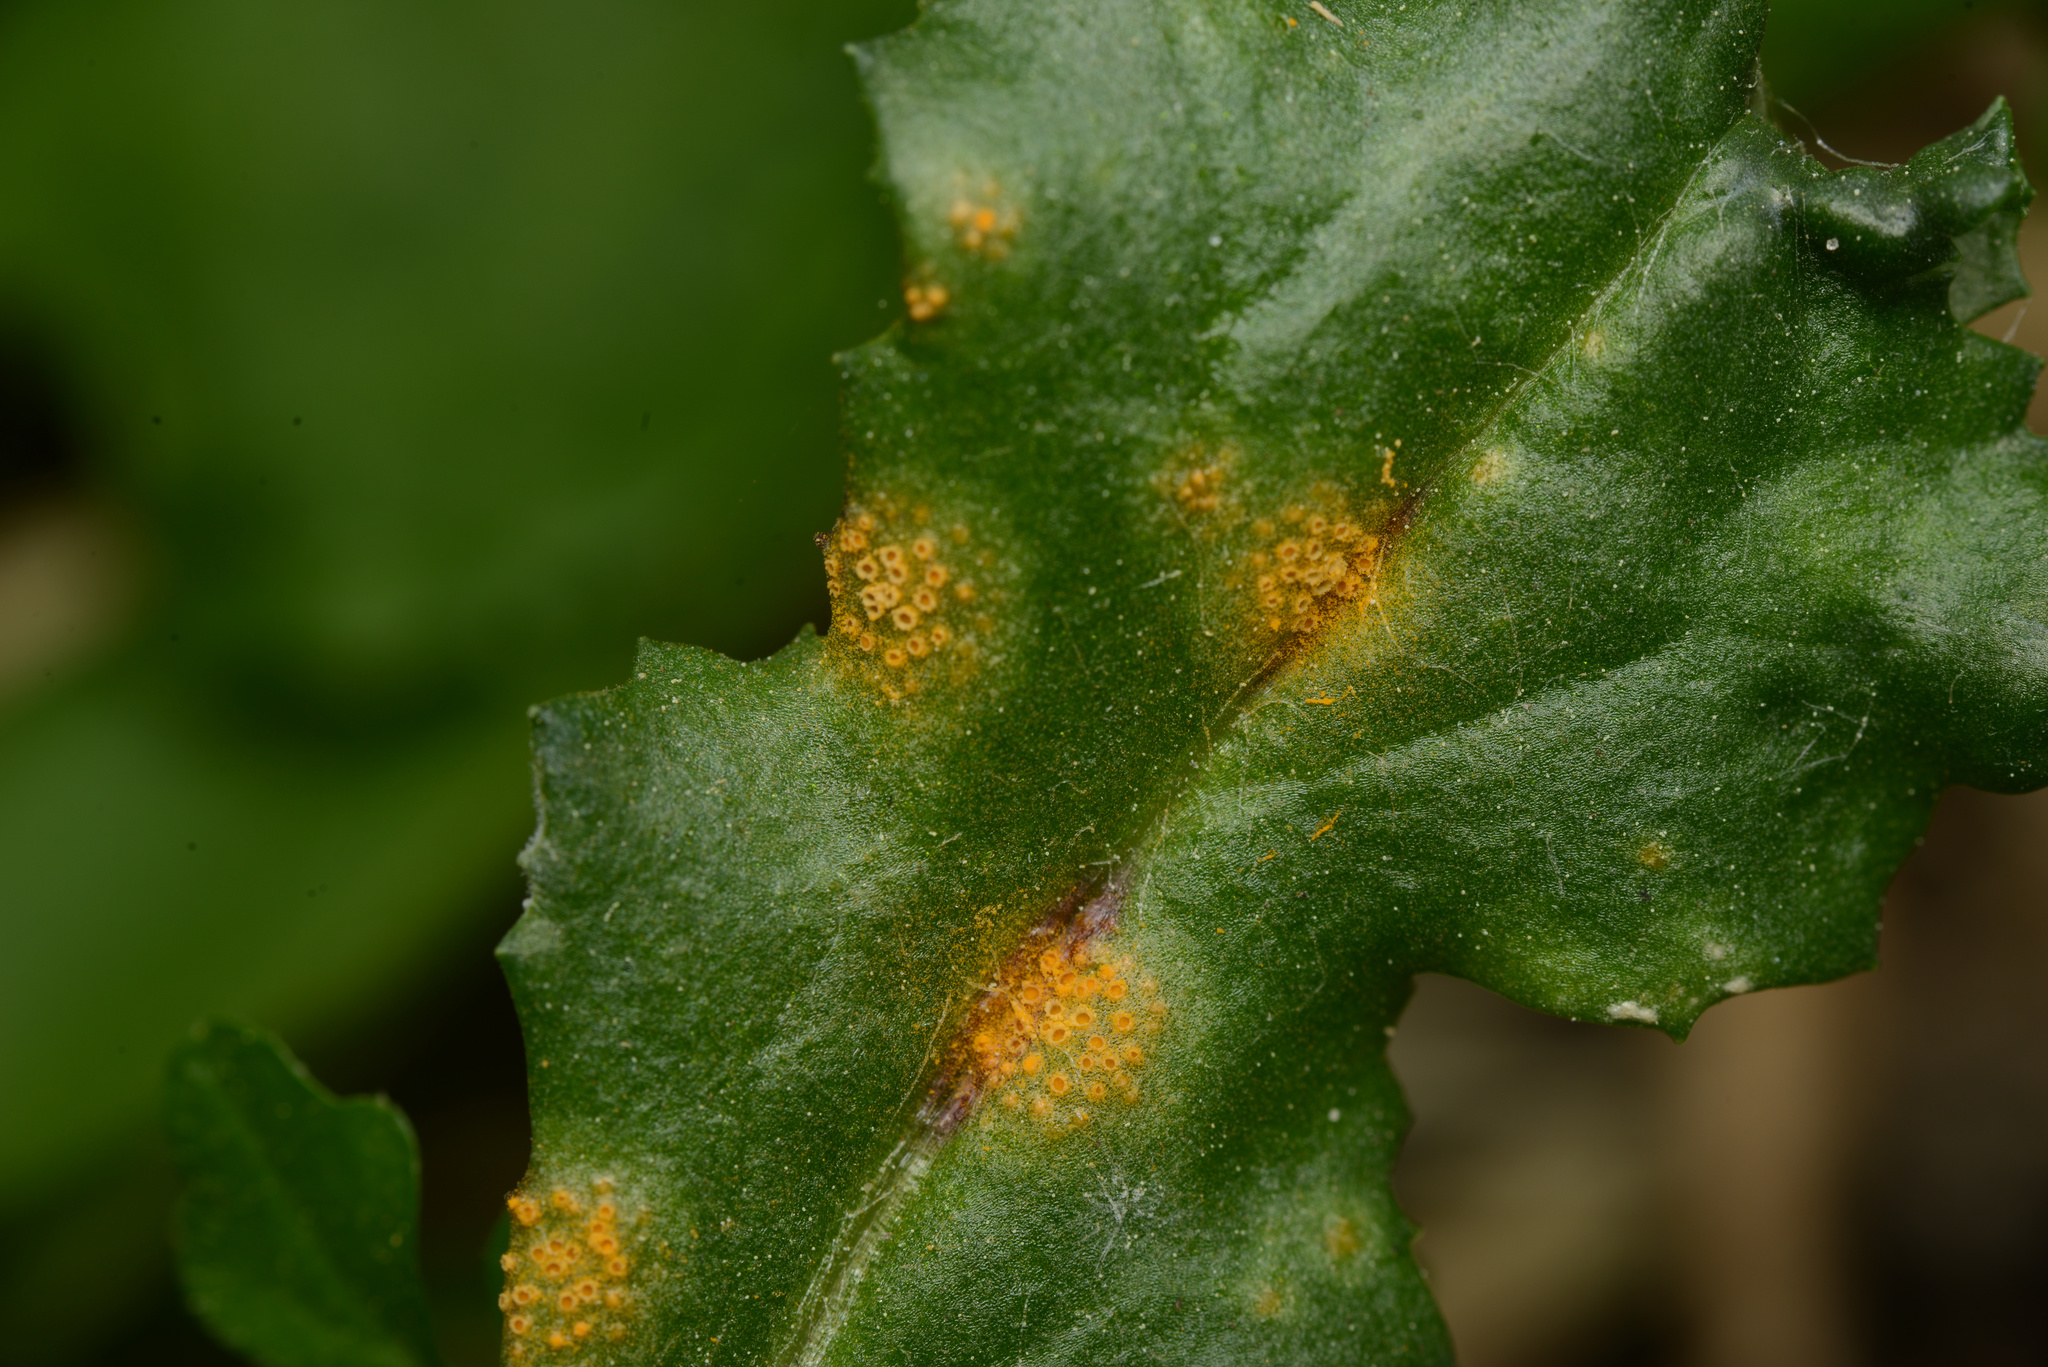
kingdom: Fungi
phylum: Basidiomycota
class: Pucciniomycetes
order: Pucciniales
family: Pucciniaceae
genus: Puccinia
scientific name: Puccinia lagenophorae
